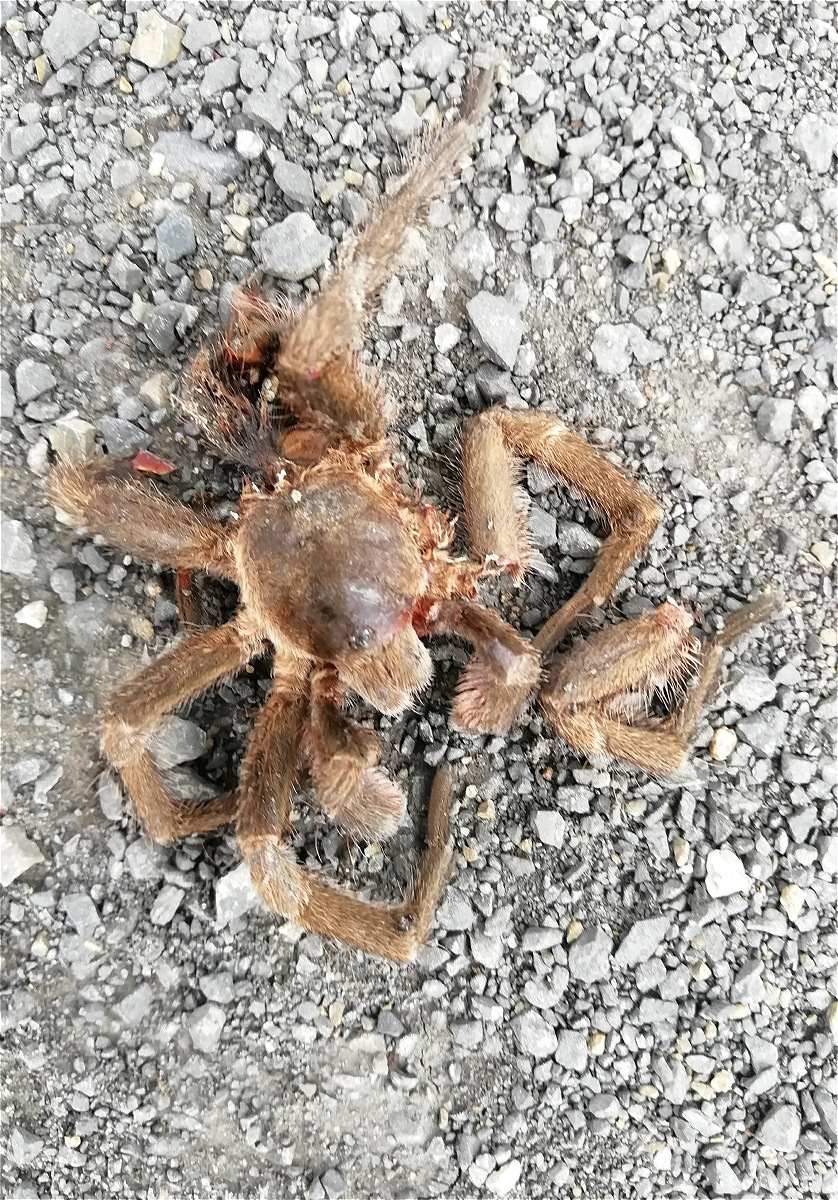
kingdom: Animalia
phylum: Arthropoda
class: Arachnida
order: Araneae
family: Theraphosidae
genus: Cyclosternum
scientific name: Cyclosternum schmardae
